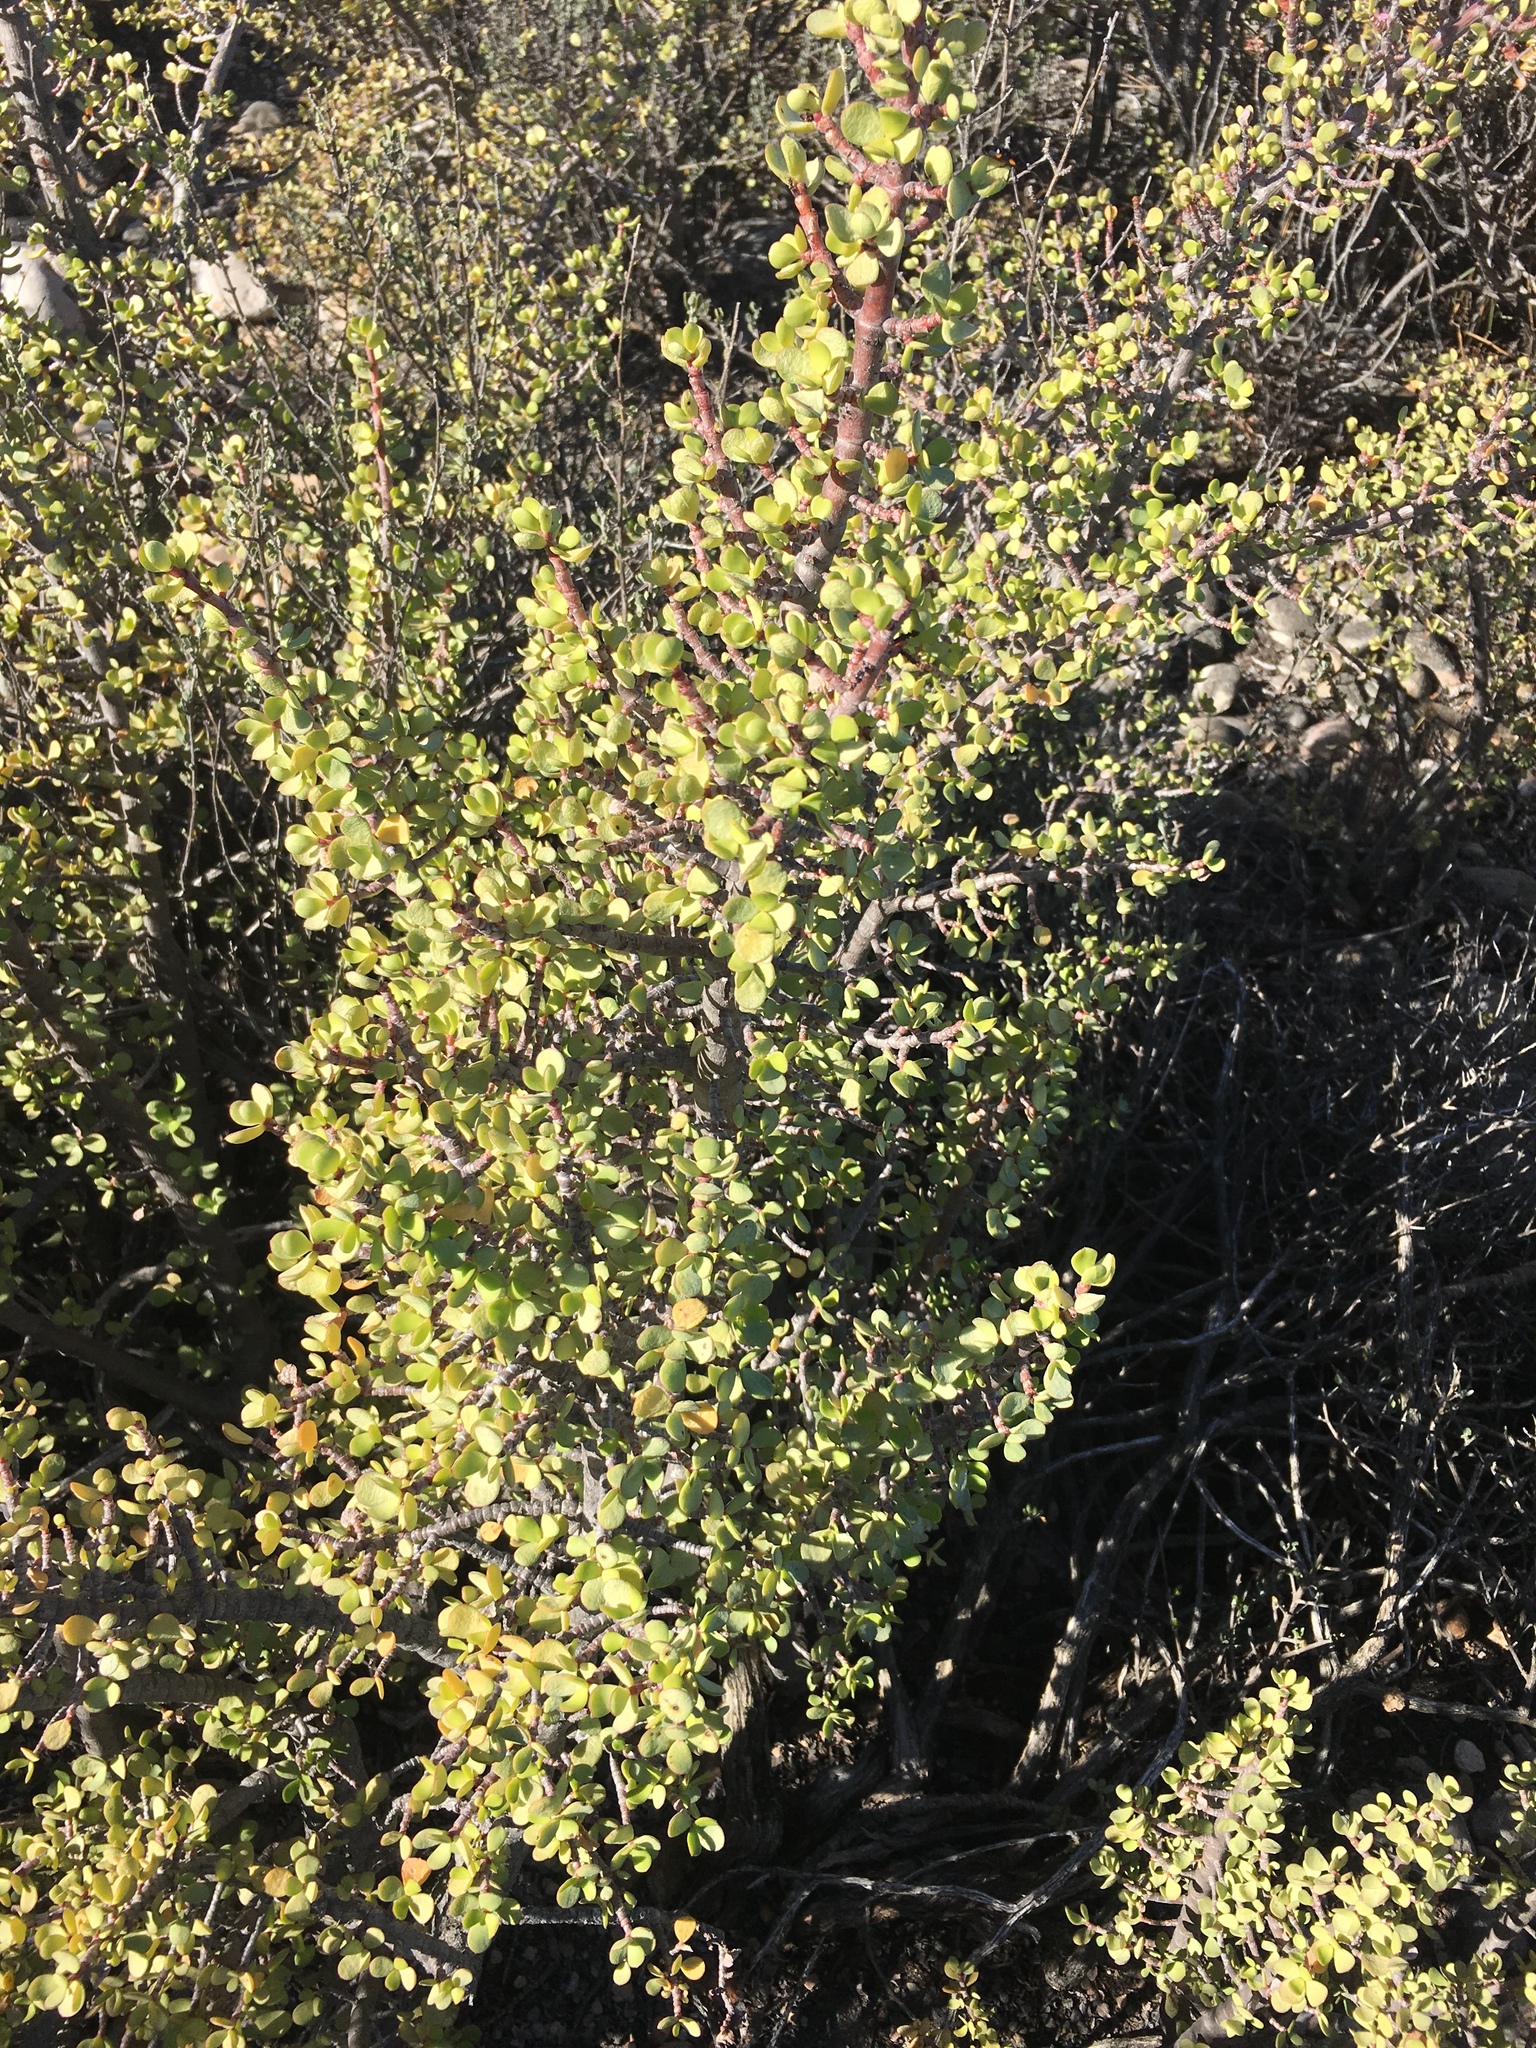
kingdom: Plantae
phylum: Tracheophyta
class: Magnoliopsida
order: Caryophyllales
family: Didiereaceae
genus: Portulacaria
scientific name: Portulacaria afra
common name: Elephant-bush
